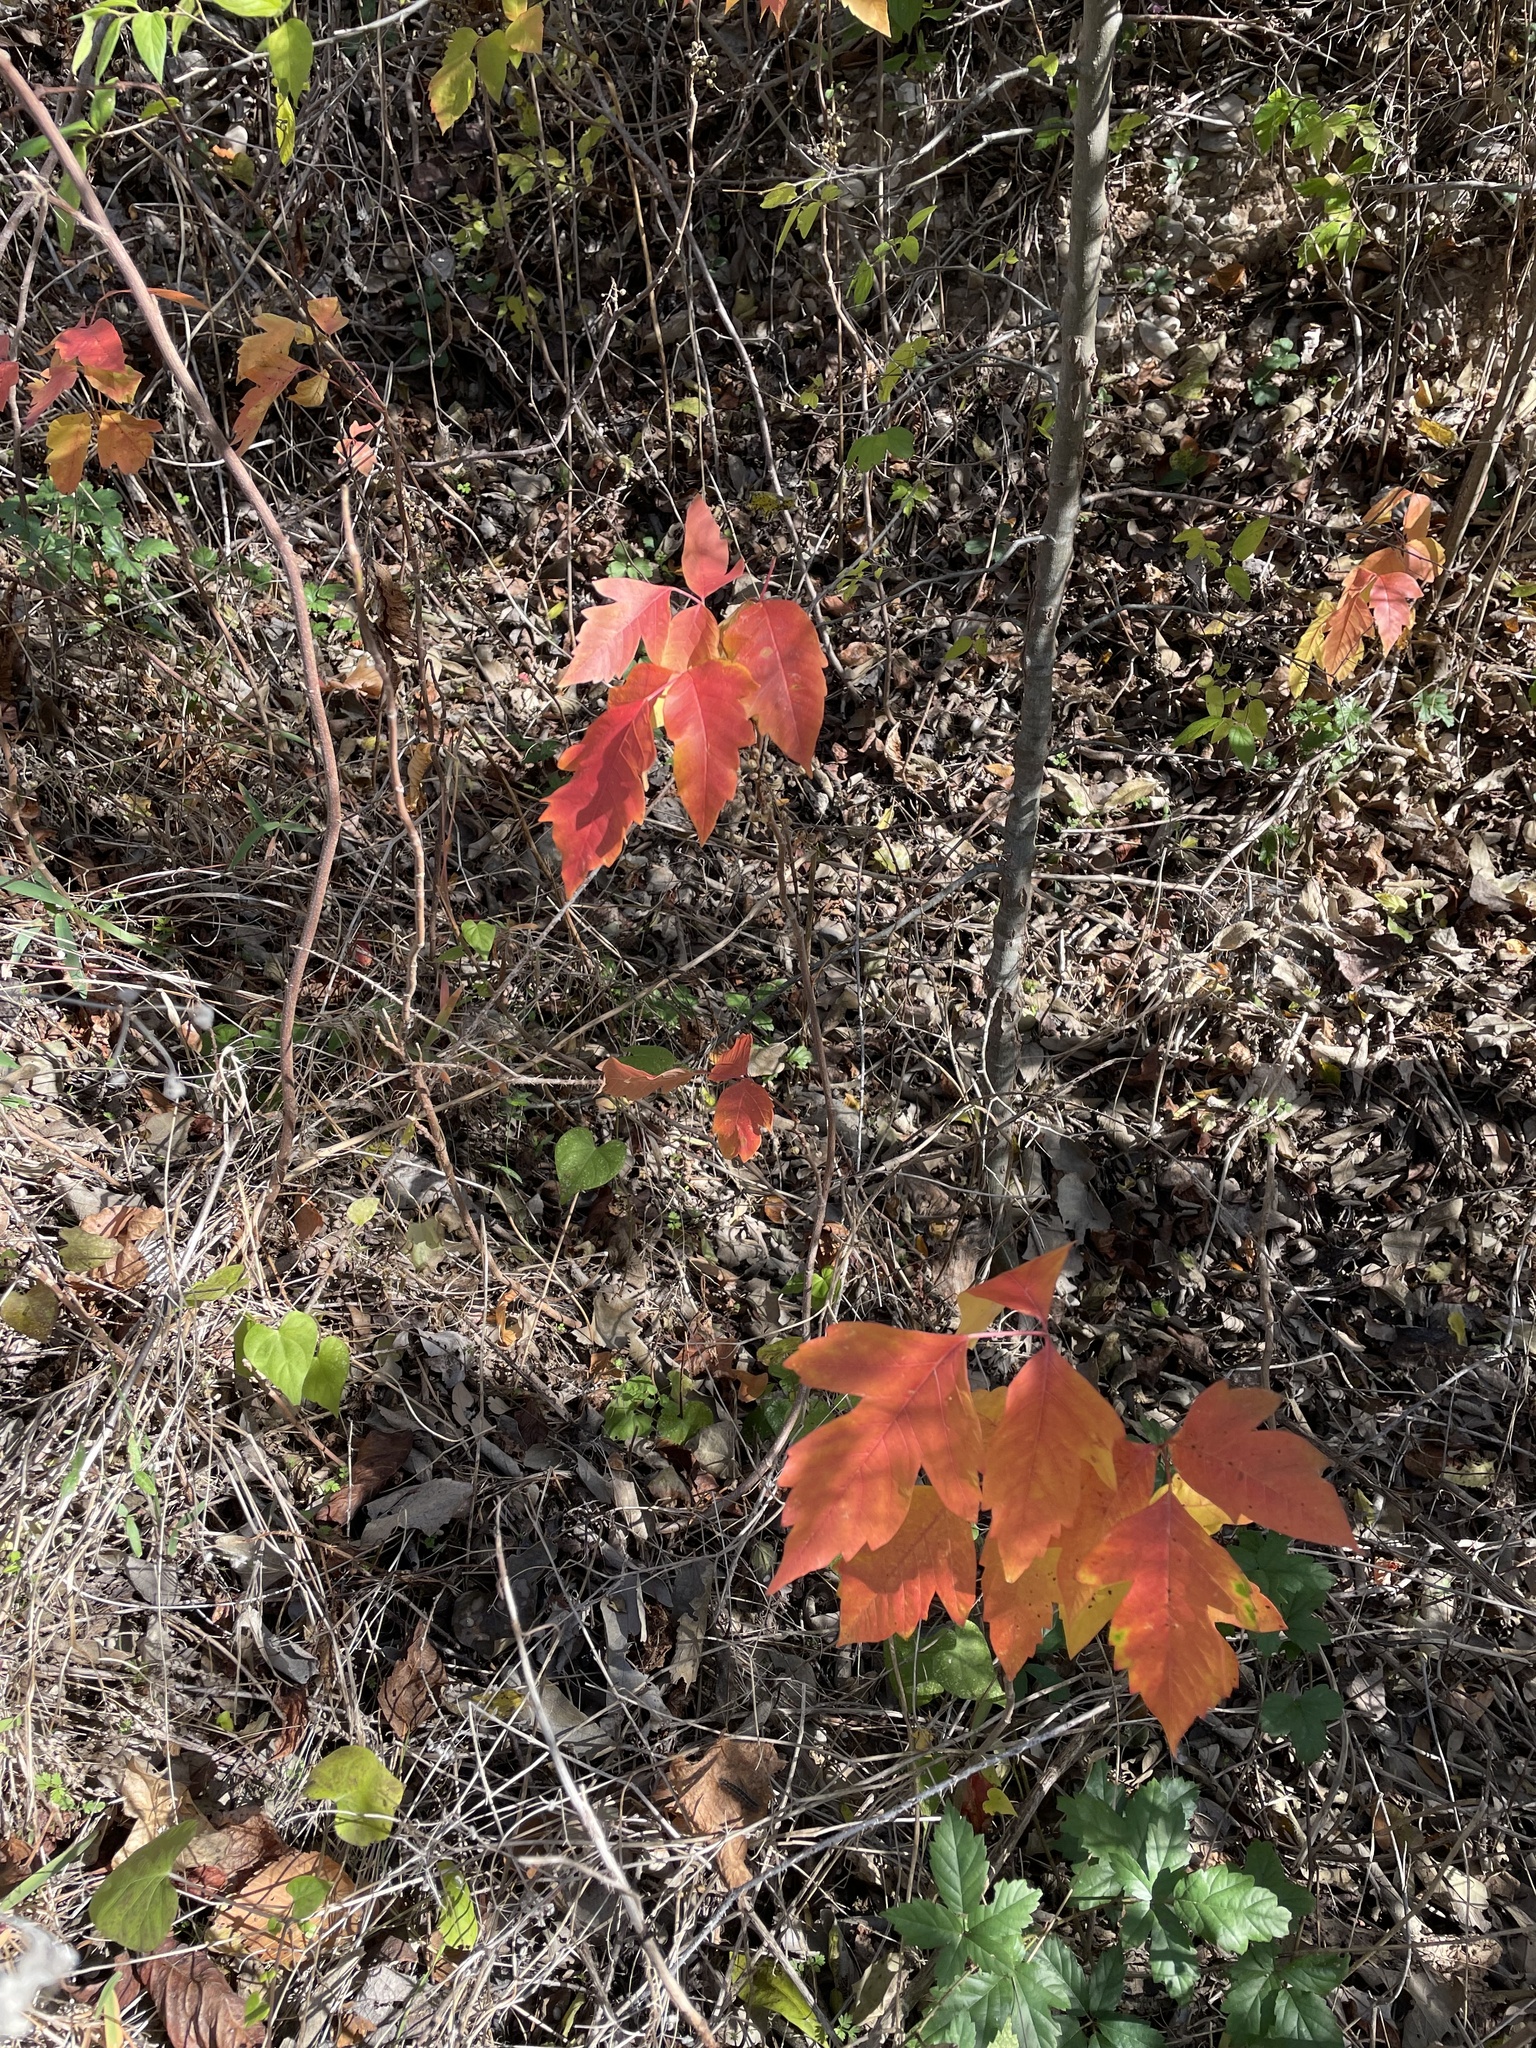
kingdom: Plantae
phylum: Tracheophyta
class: Magnoliopsida
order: Sapindales
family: Anacardiaceae
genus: Toxicodendron
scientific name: Toxicodendron radicans
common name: Poison ivy
